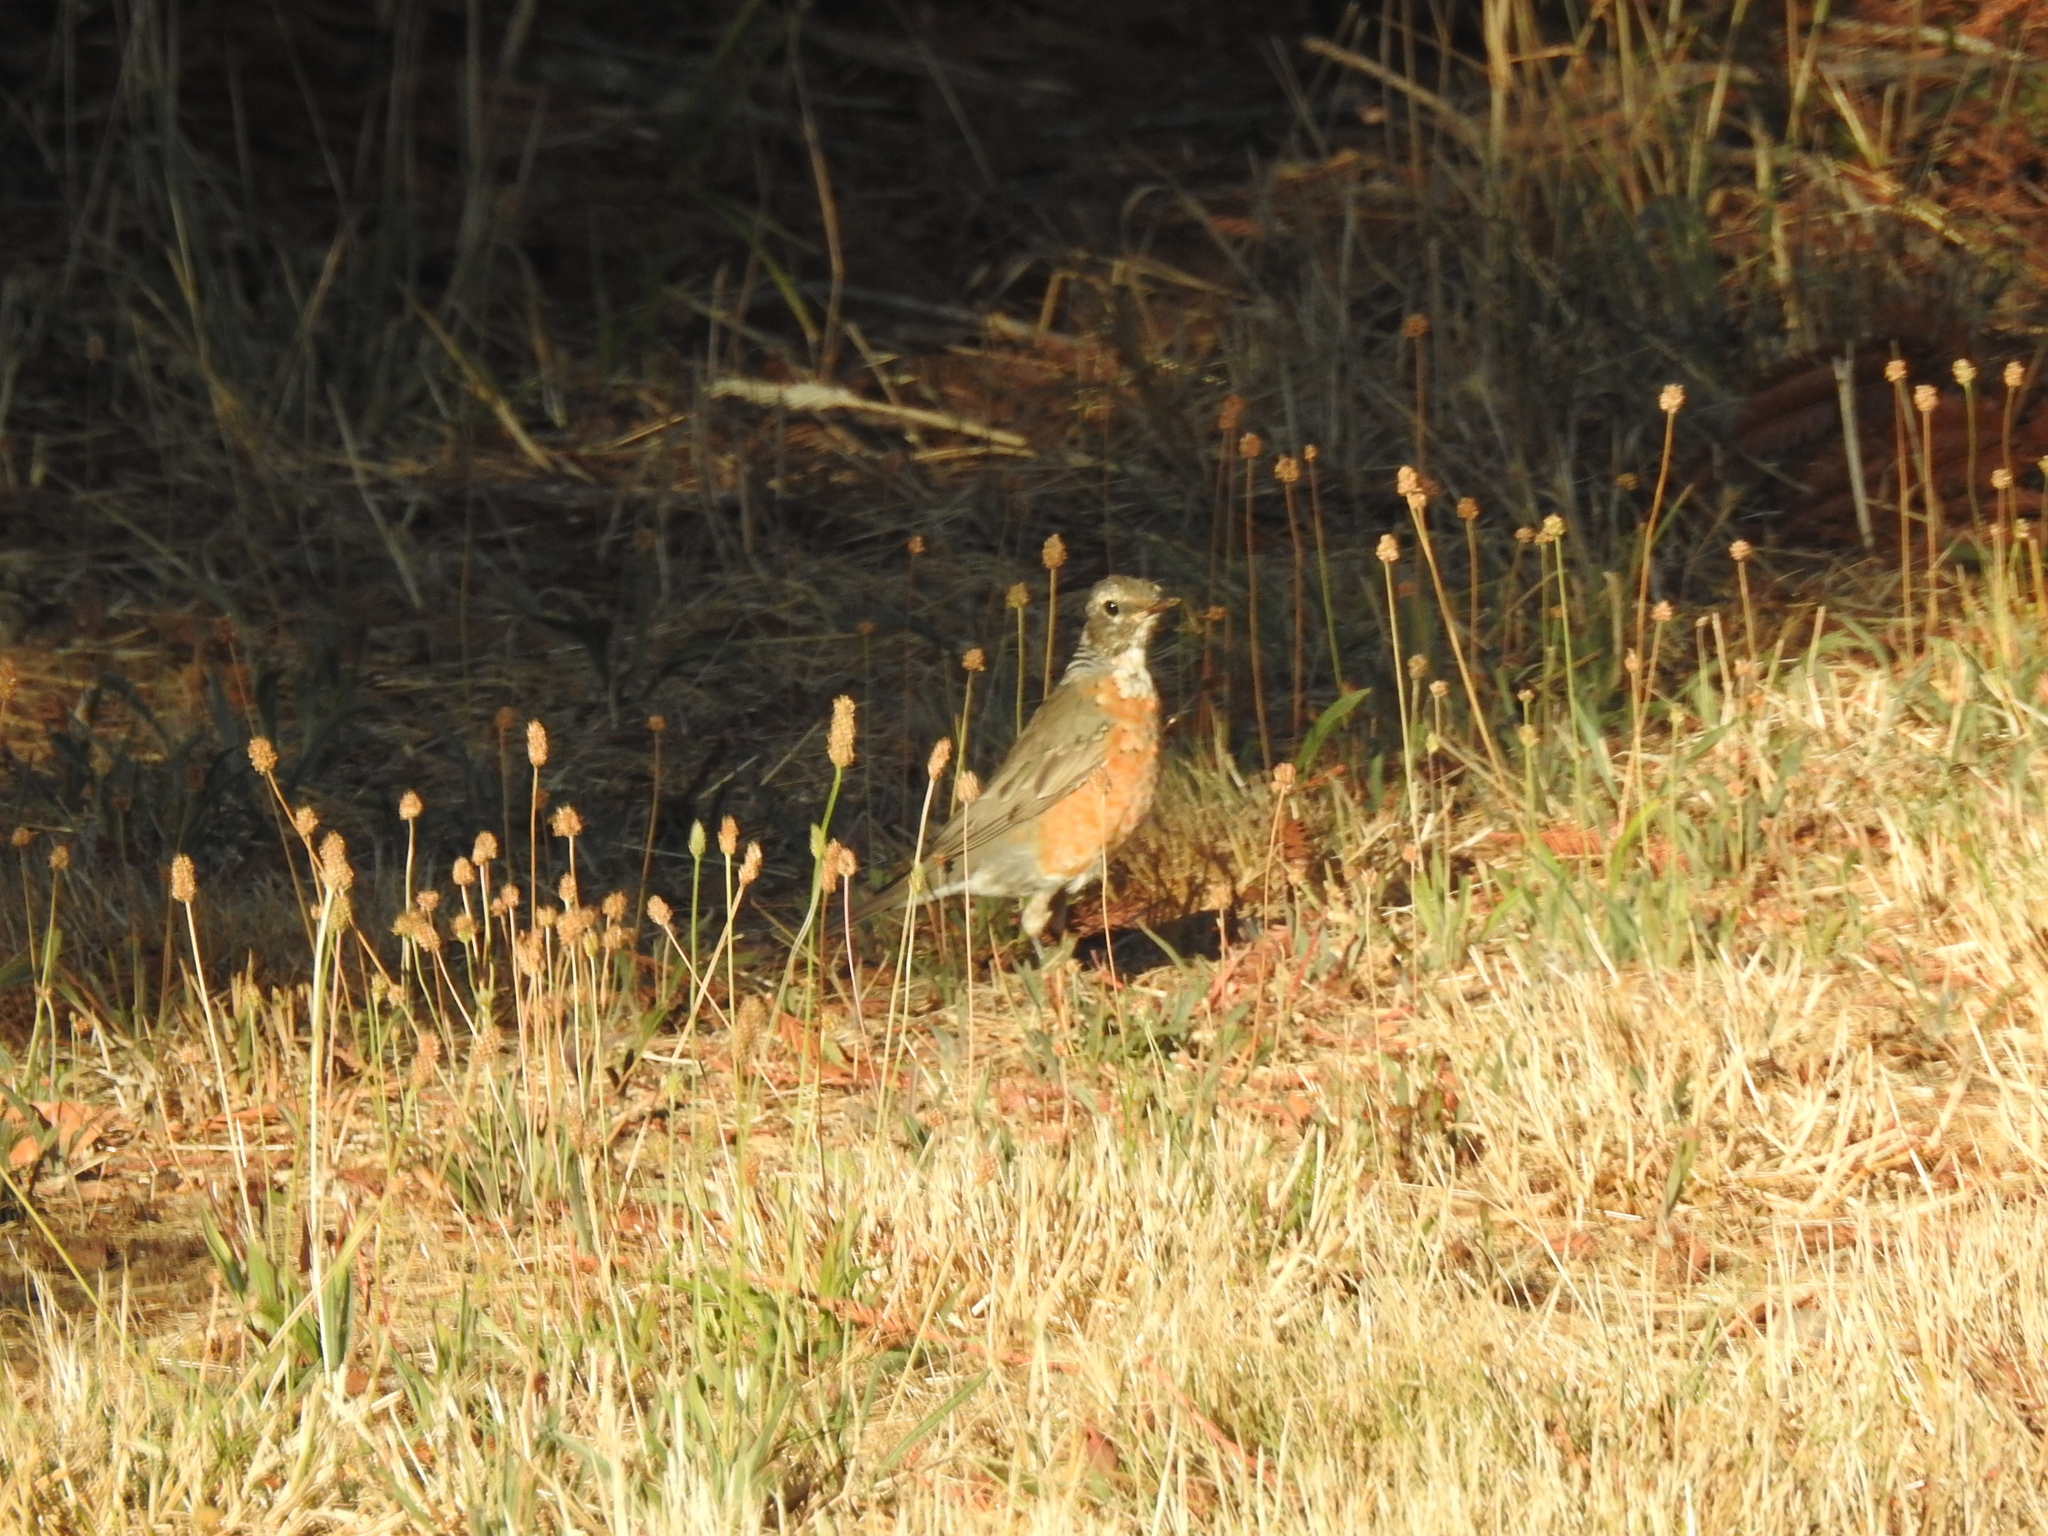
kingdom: Animalia
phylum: Chordata
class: Aves
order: Passeriformes
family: Turdidae
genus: Turdus
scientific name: Turdus migratorius
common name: American robin
